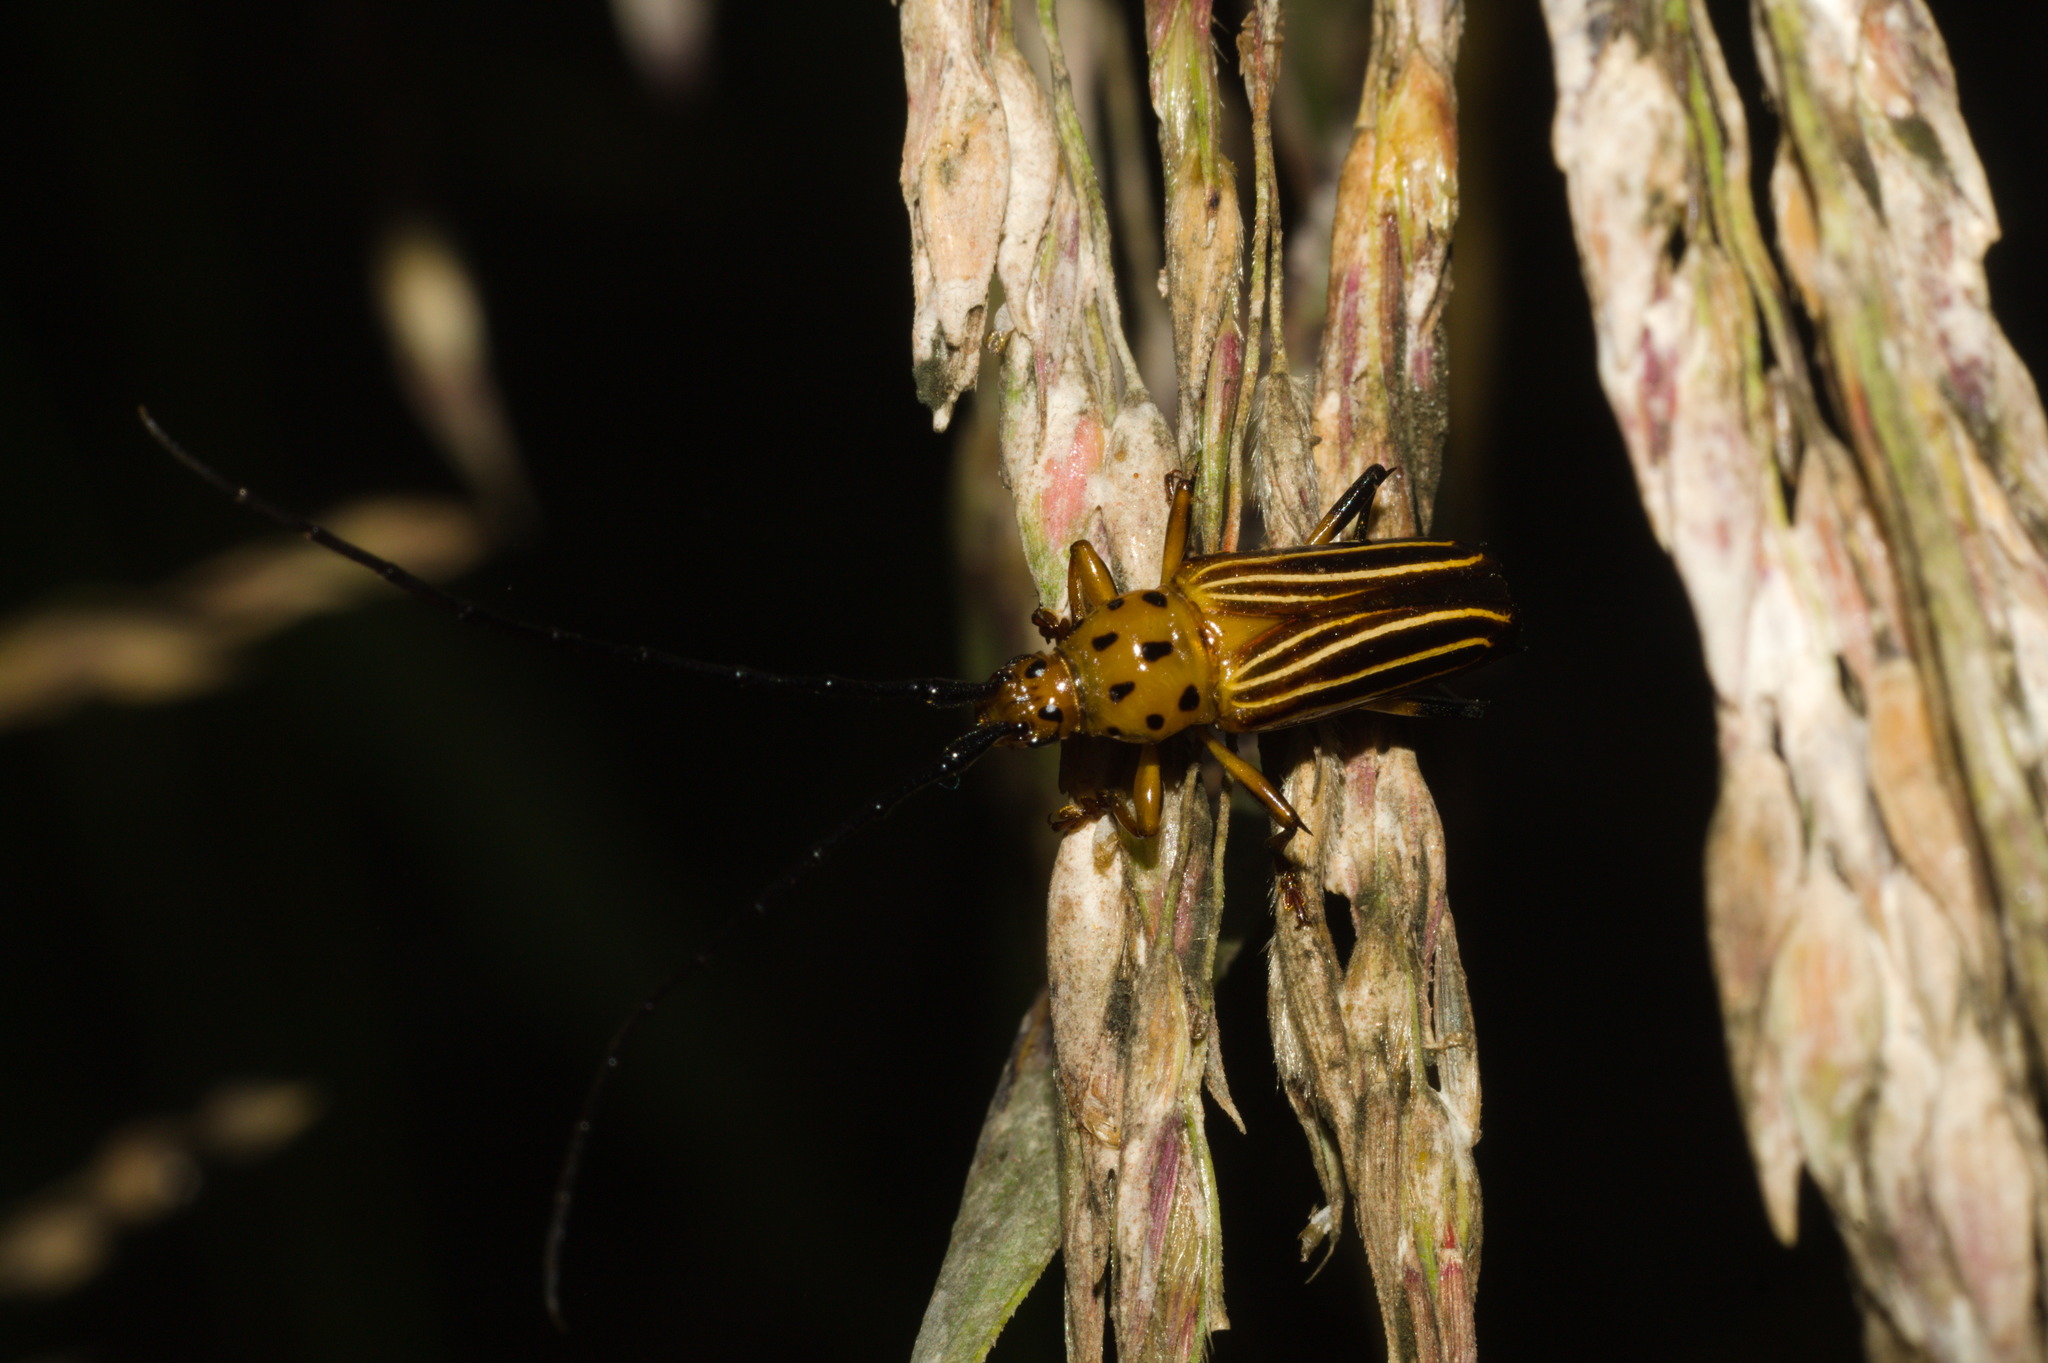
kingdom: Animalia
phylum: Arthropoda
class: Insecta
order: Coleoptera
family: Cerambycidae
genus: Oxymerus
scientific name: Oxymerus aculeatus
